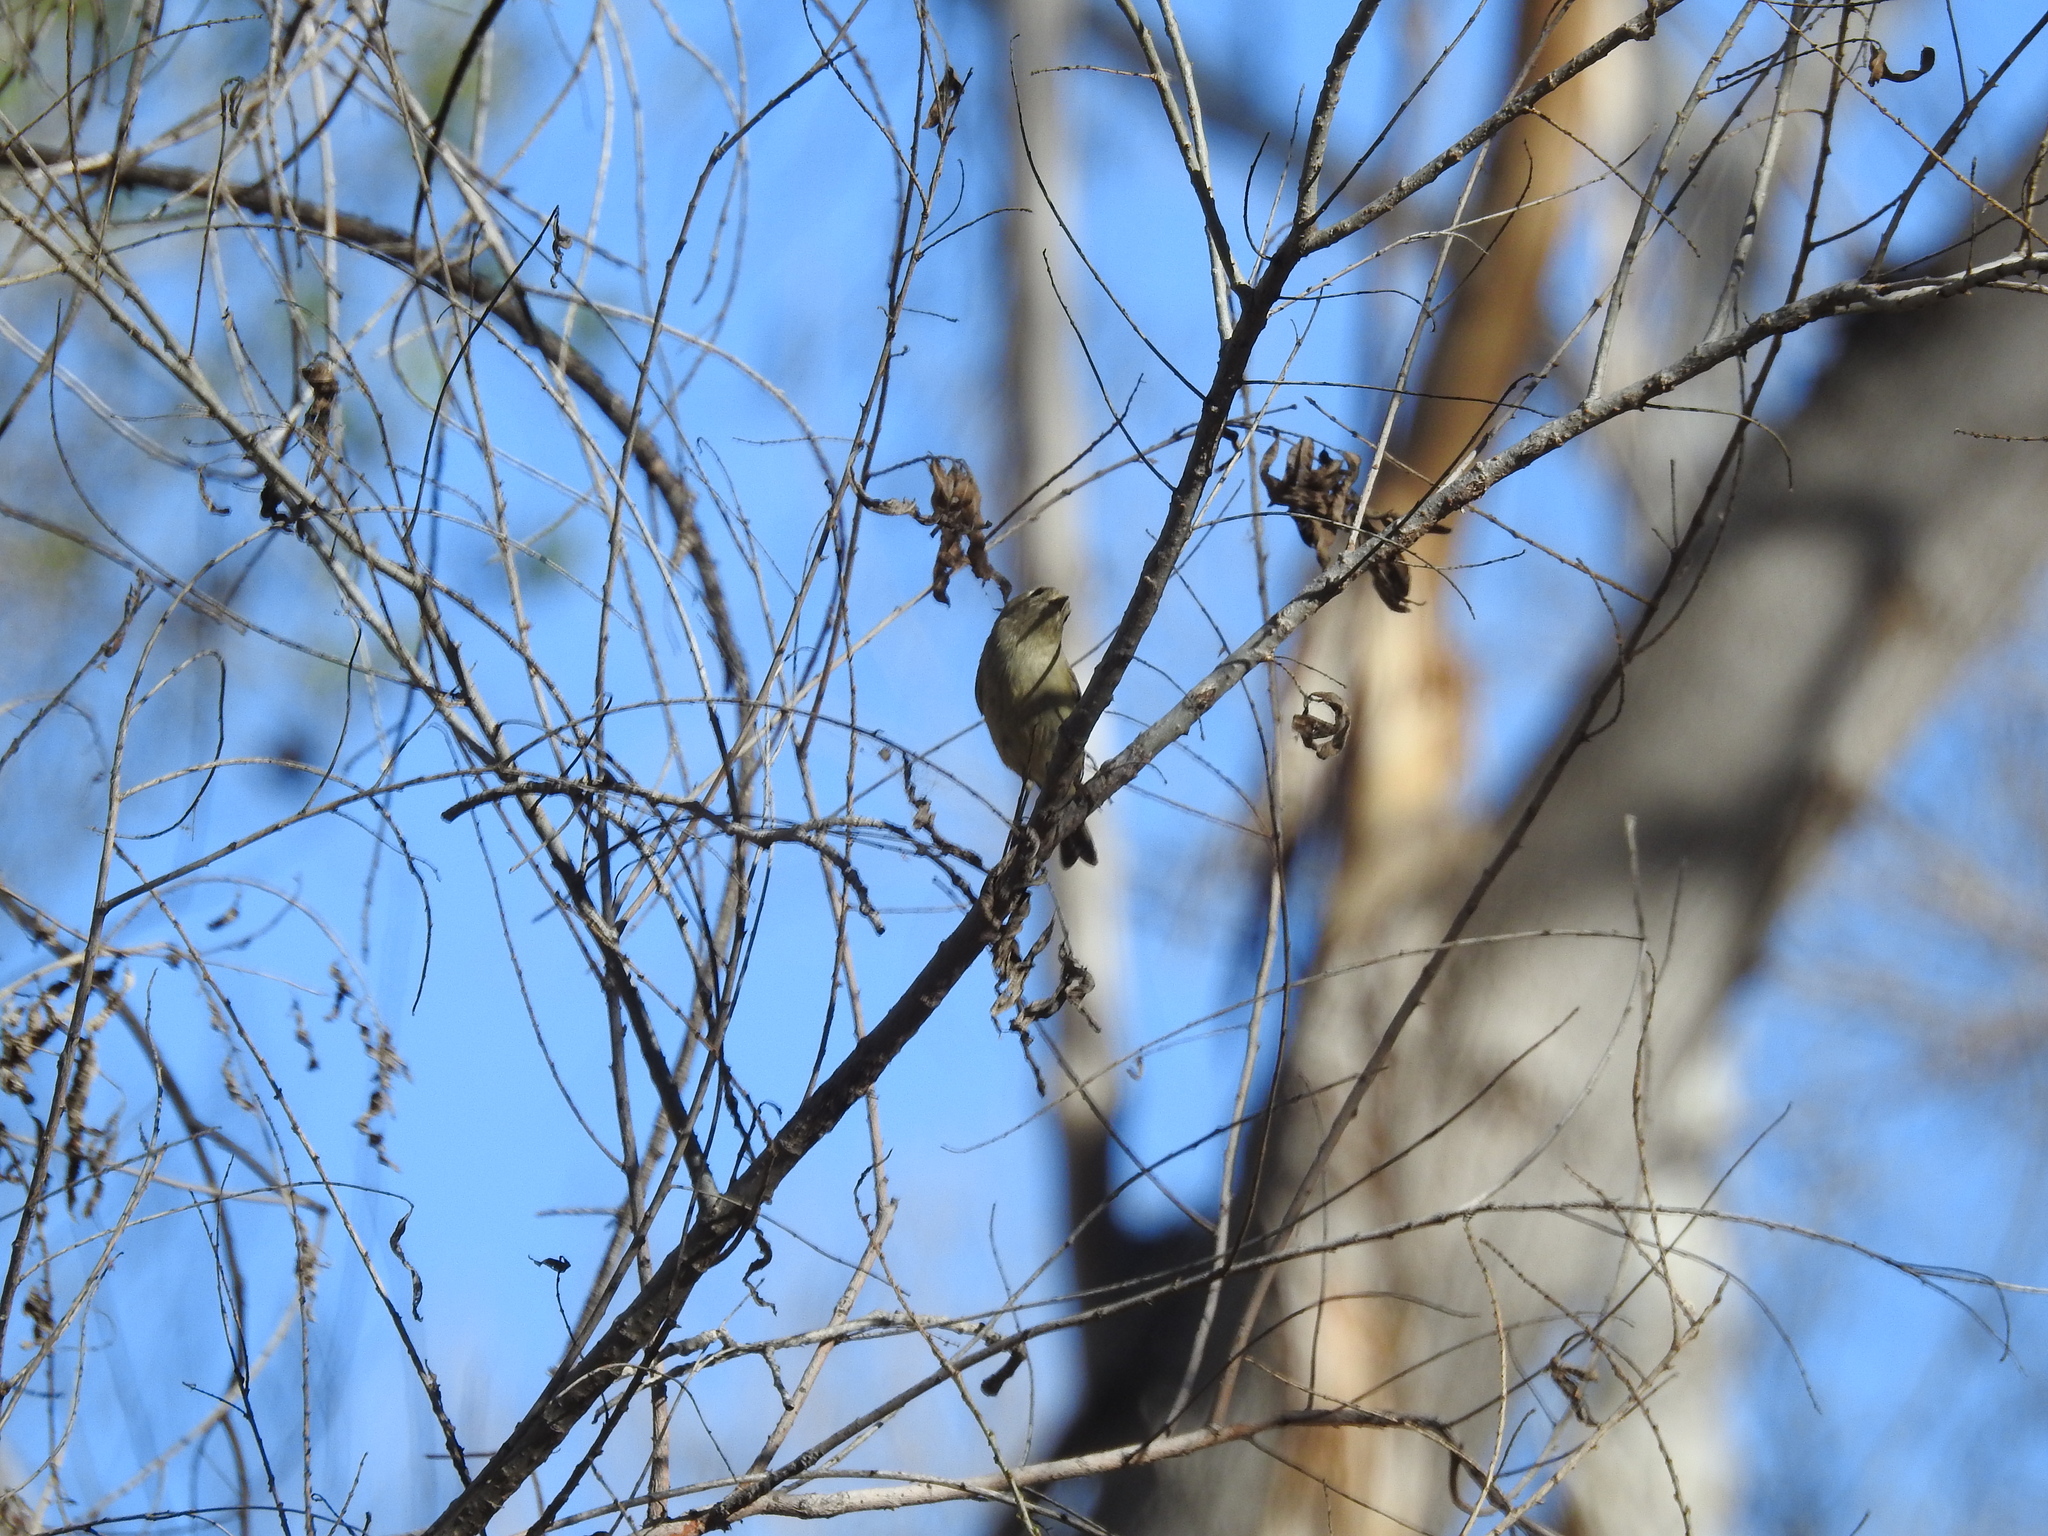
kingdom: Animalia
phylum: Chordata
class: Aves
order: Passeriformes
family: Regulidae
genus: Regulus
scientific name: Regulus calendula
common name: Ruby-crowned kinglet
